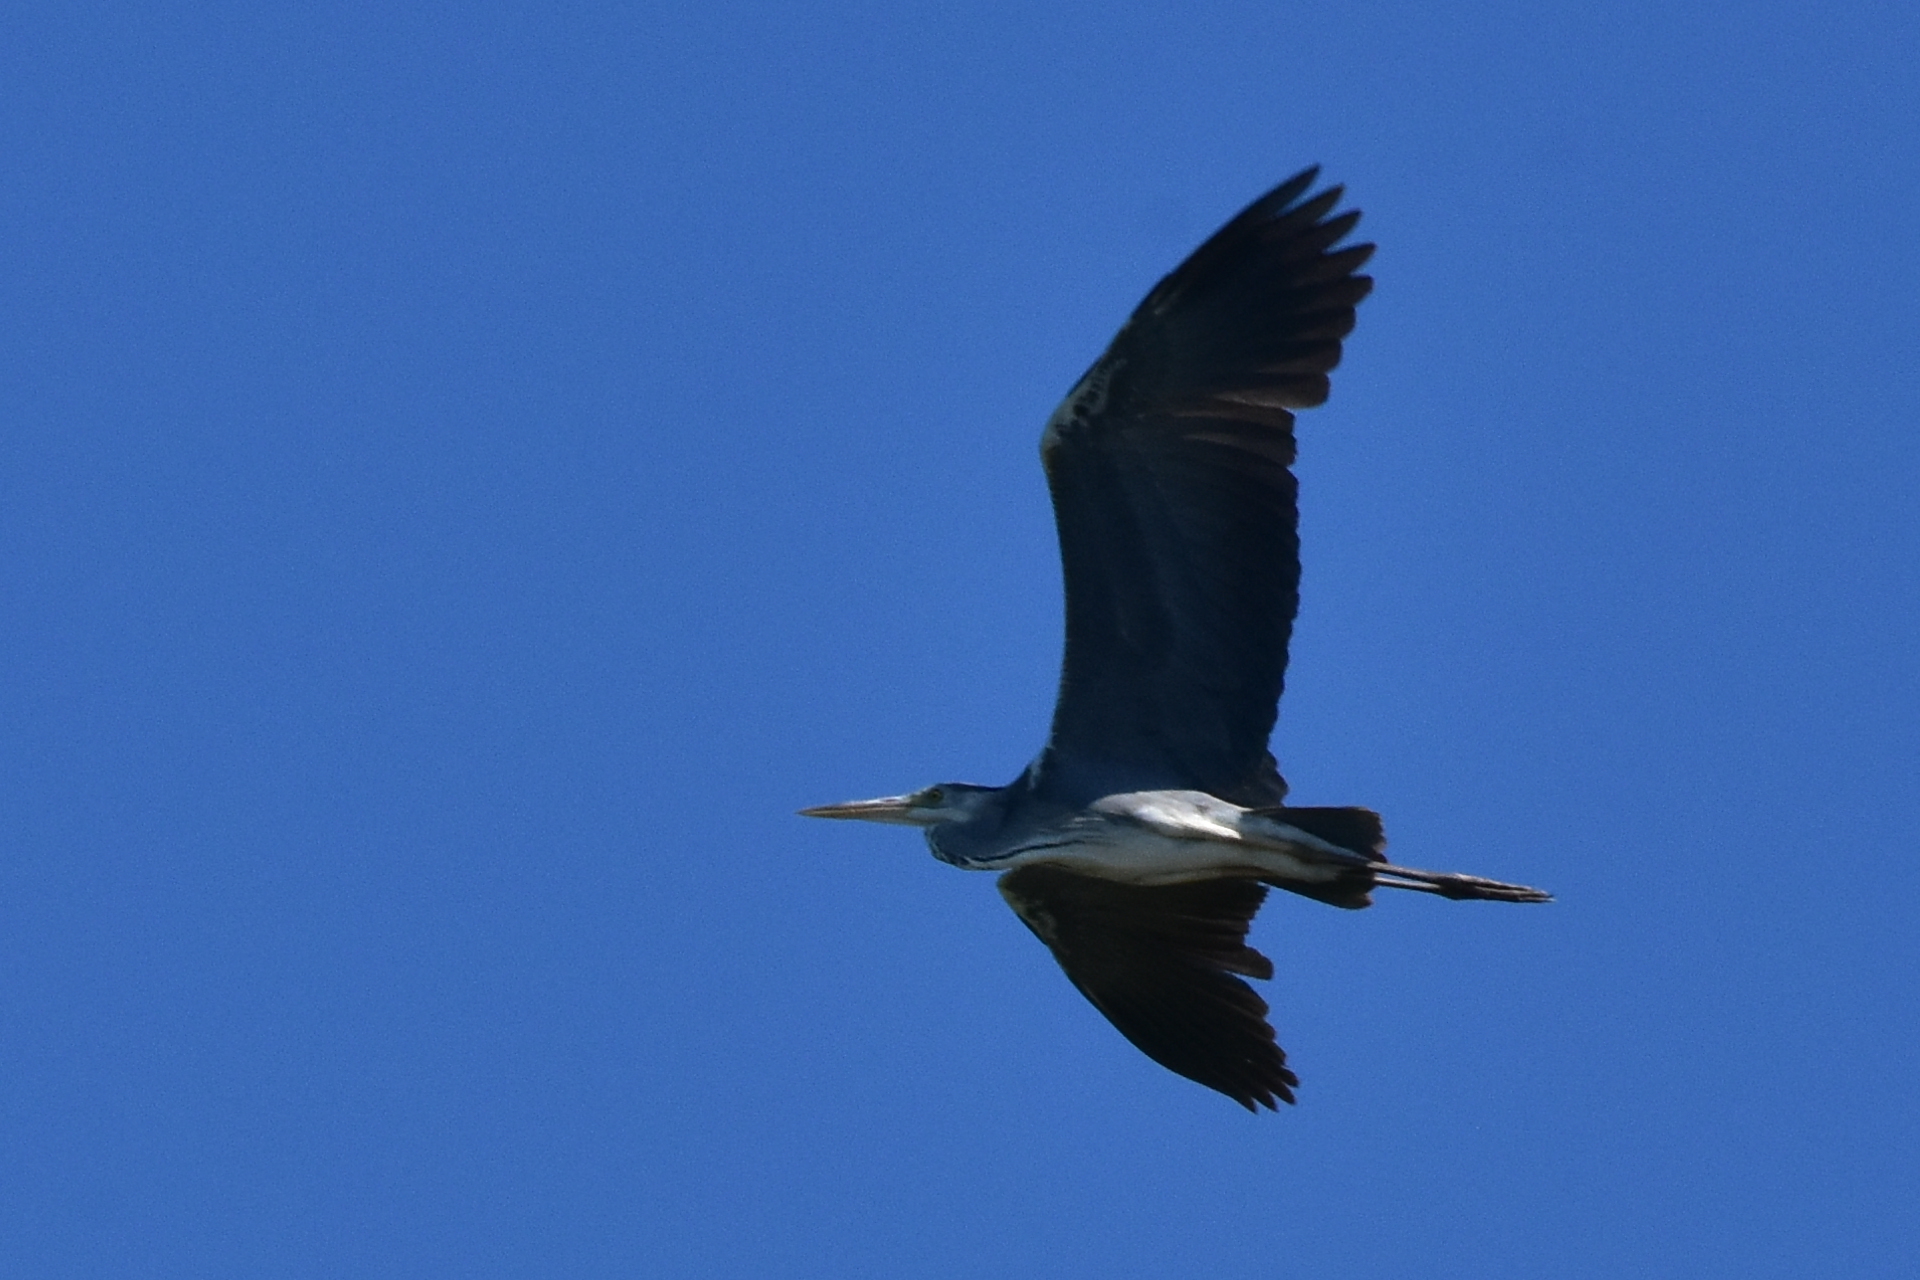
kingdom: Animalia
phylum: Chordata
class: Aves
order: Pelecaniformes
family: Ardeidae
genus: Ardea
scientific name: Ardea cinerea
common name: Grey heron
